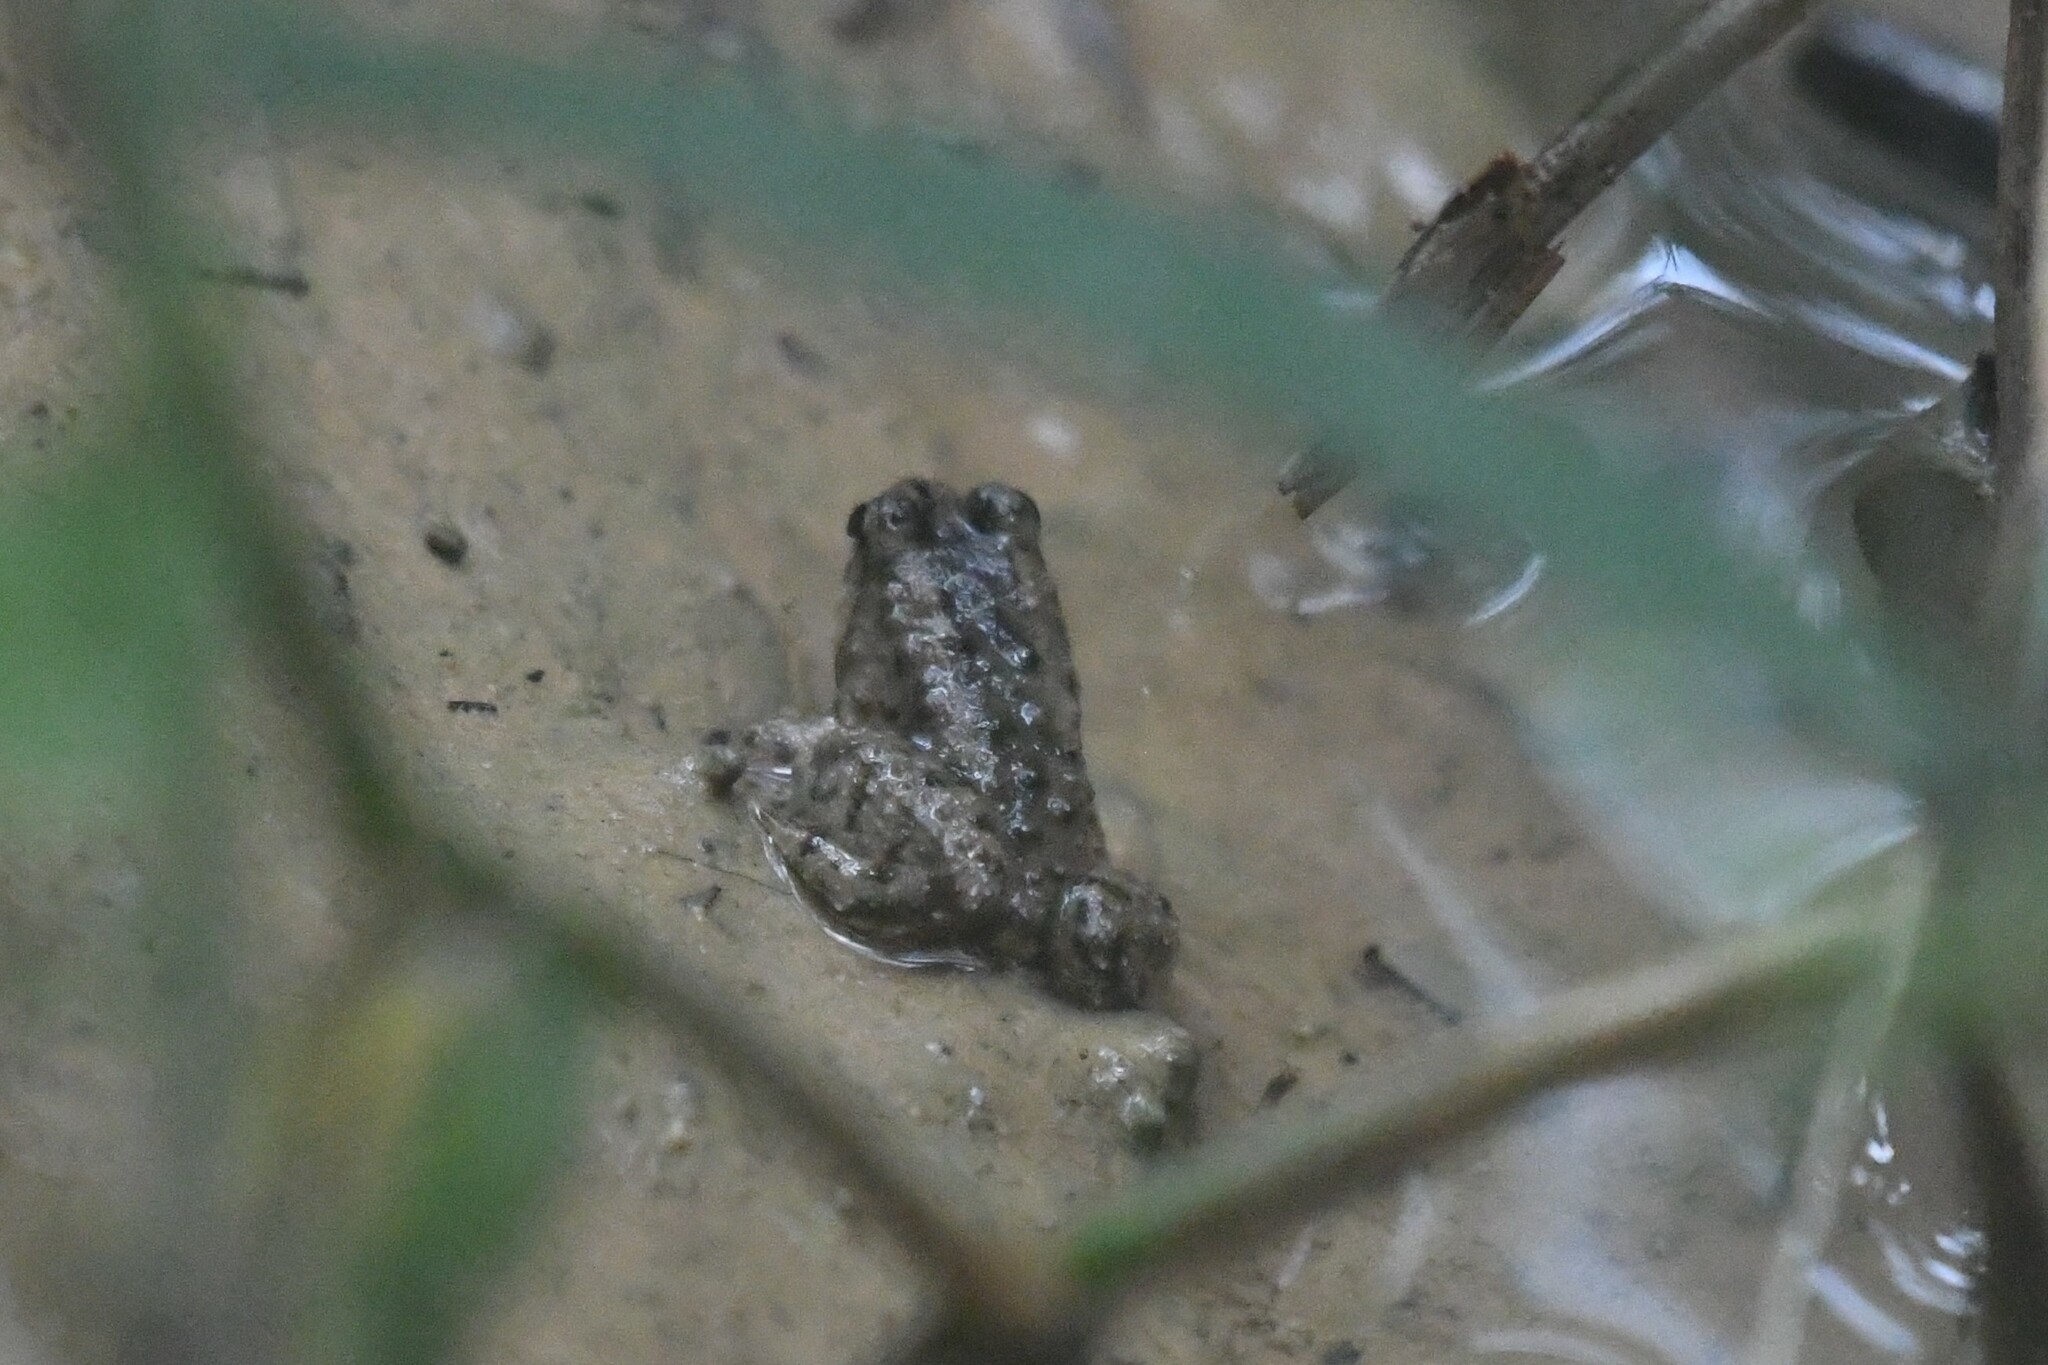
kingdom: Animalia
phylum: Chordata
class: Amphibia
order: Anura
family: Dicroglossidae
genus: Occidozyga
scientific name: Occidozyga martensii
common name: Marten’s oriental frog/round-tongued floating frog
